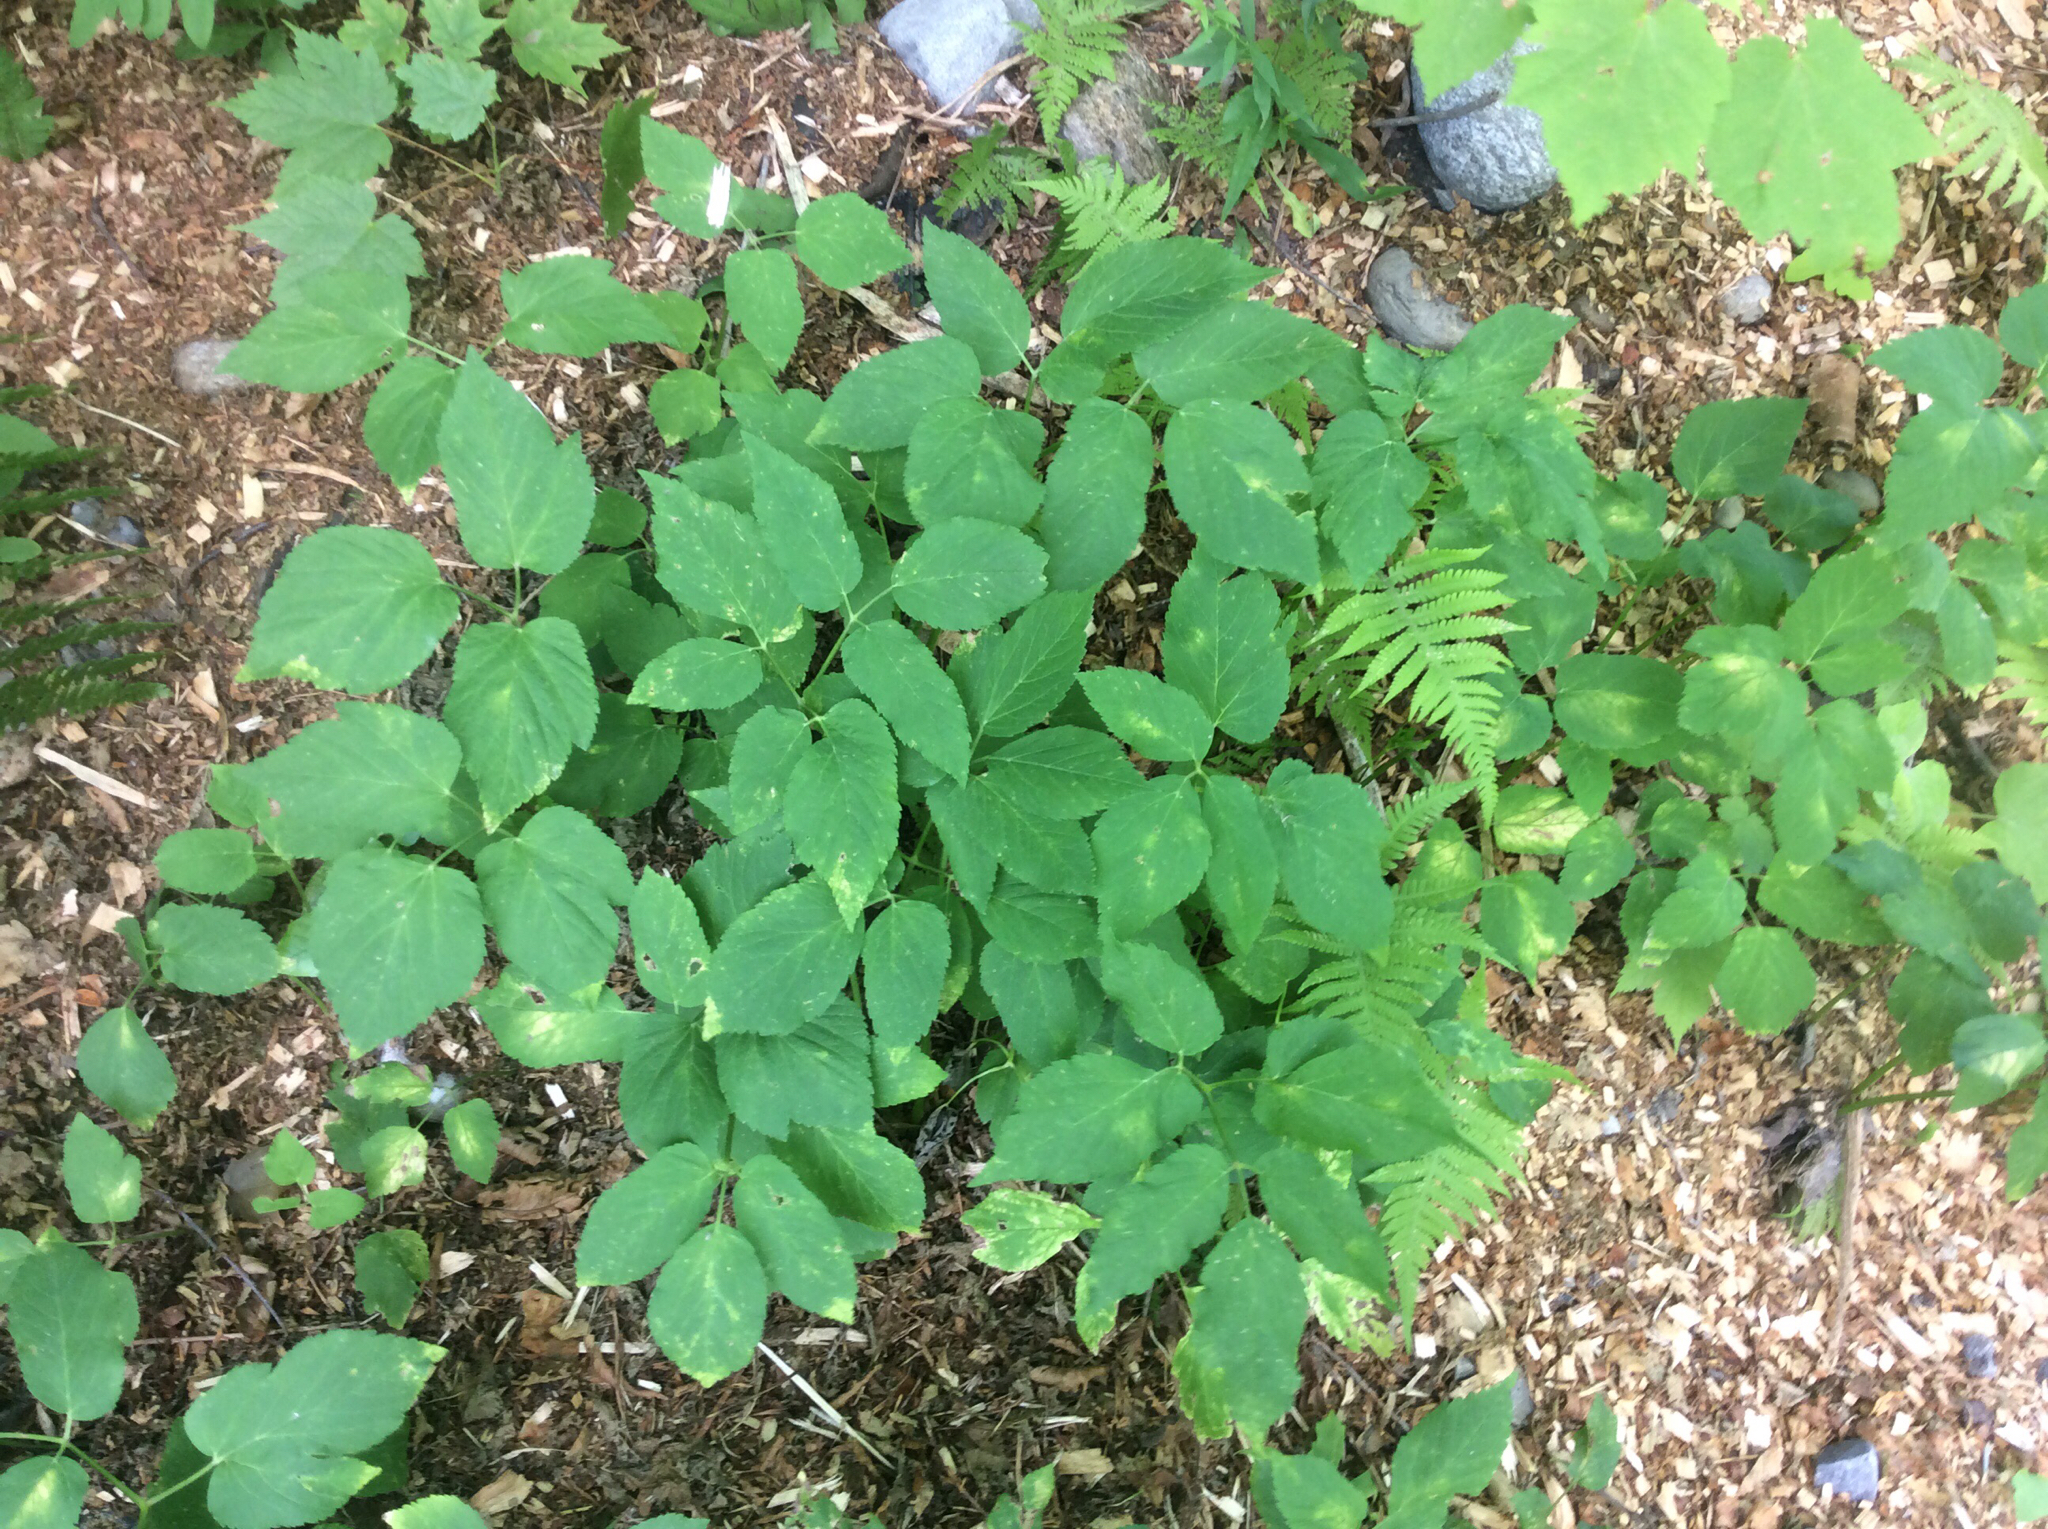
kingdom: Plantae
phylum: Tracheophyta
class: Magnoliopsida
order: Apiales
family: Apiaceae
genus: Aegopodium
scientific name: Aegopodium podagraria
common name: Ground-elder
